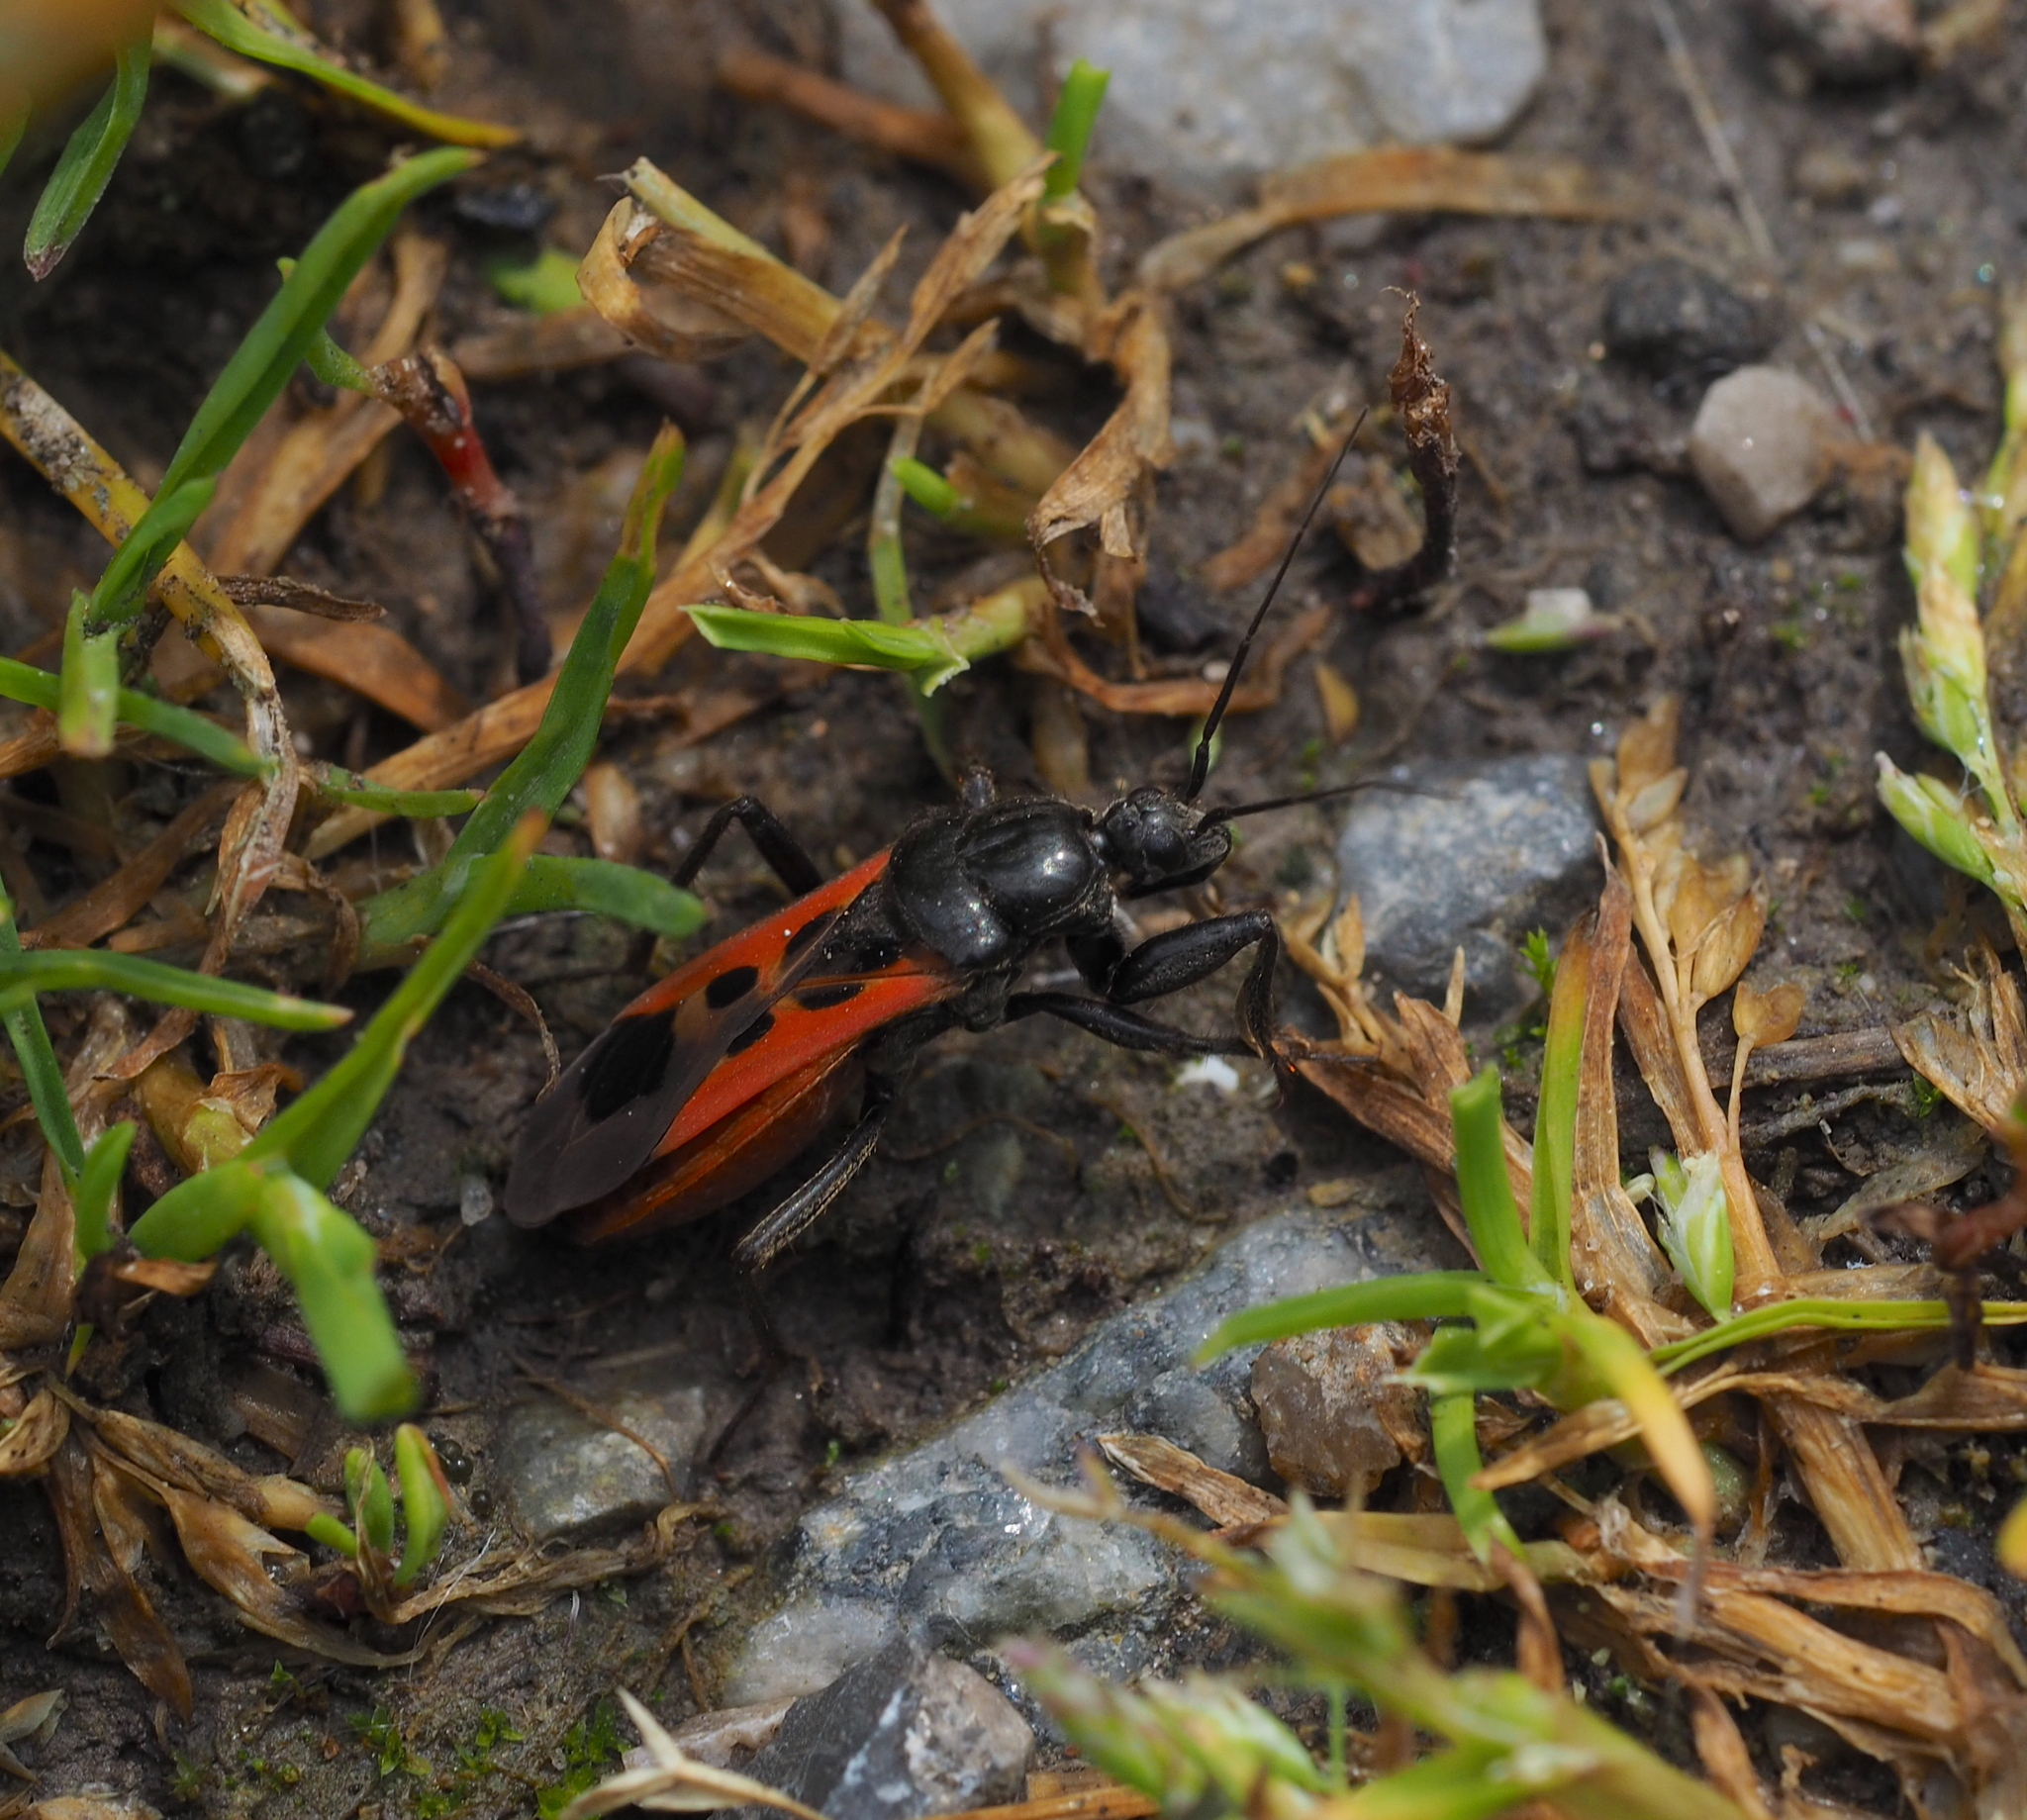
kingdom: Animalia
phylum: Arthropoda
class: Insecta
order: Hemiptera
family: Reduviidae
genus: Peirates
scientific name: Peirates hybridus
